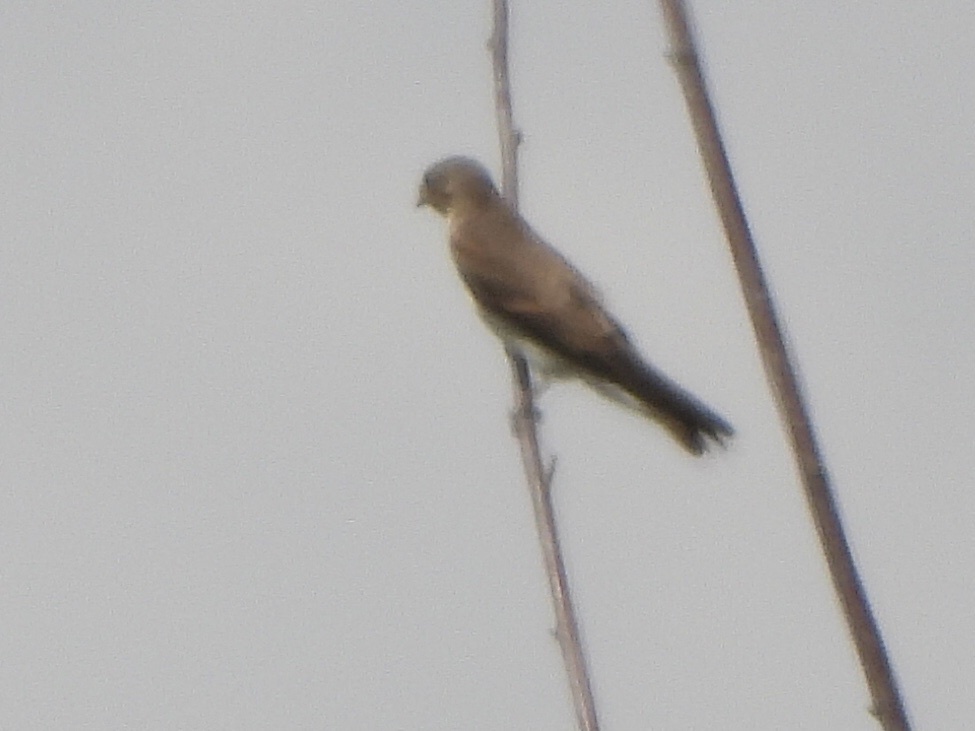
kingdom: Animalia
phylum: Chordata
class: Aves
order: Passeriformes
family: Hirundinidae
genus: Stelgidopteryx
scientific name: Stelgidopteryx serripennis
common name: Northern rough-winged swallow
